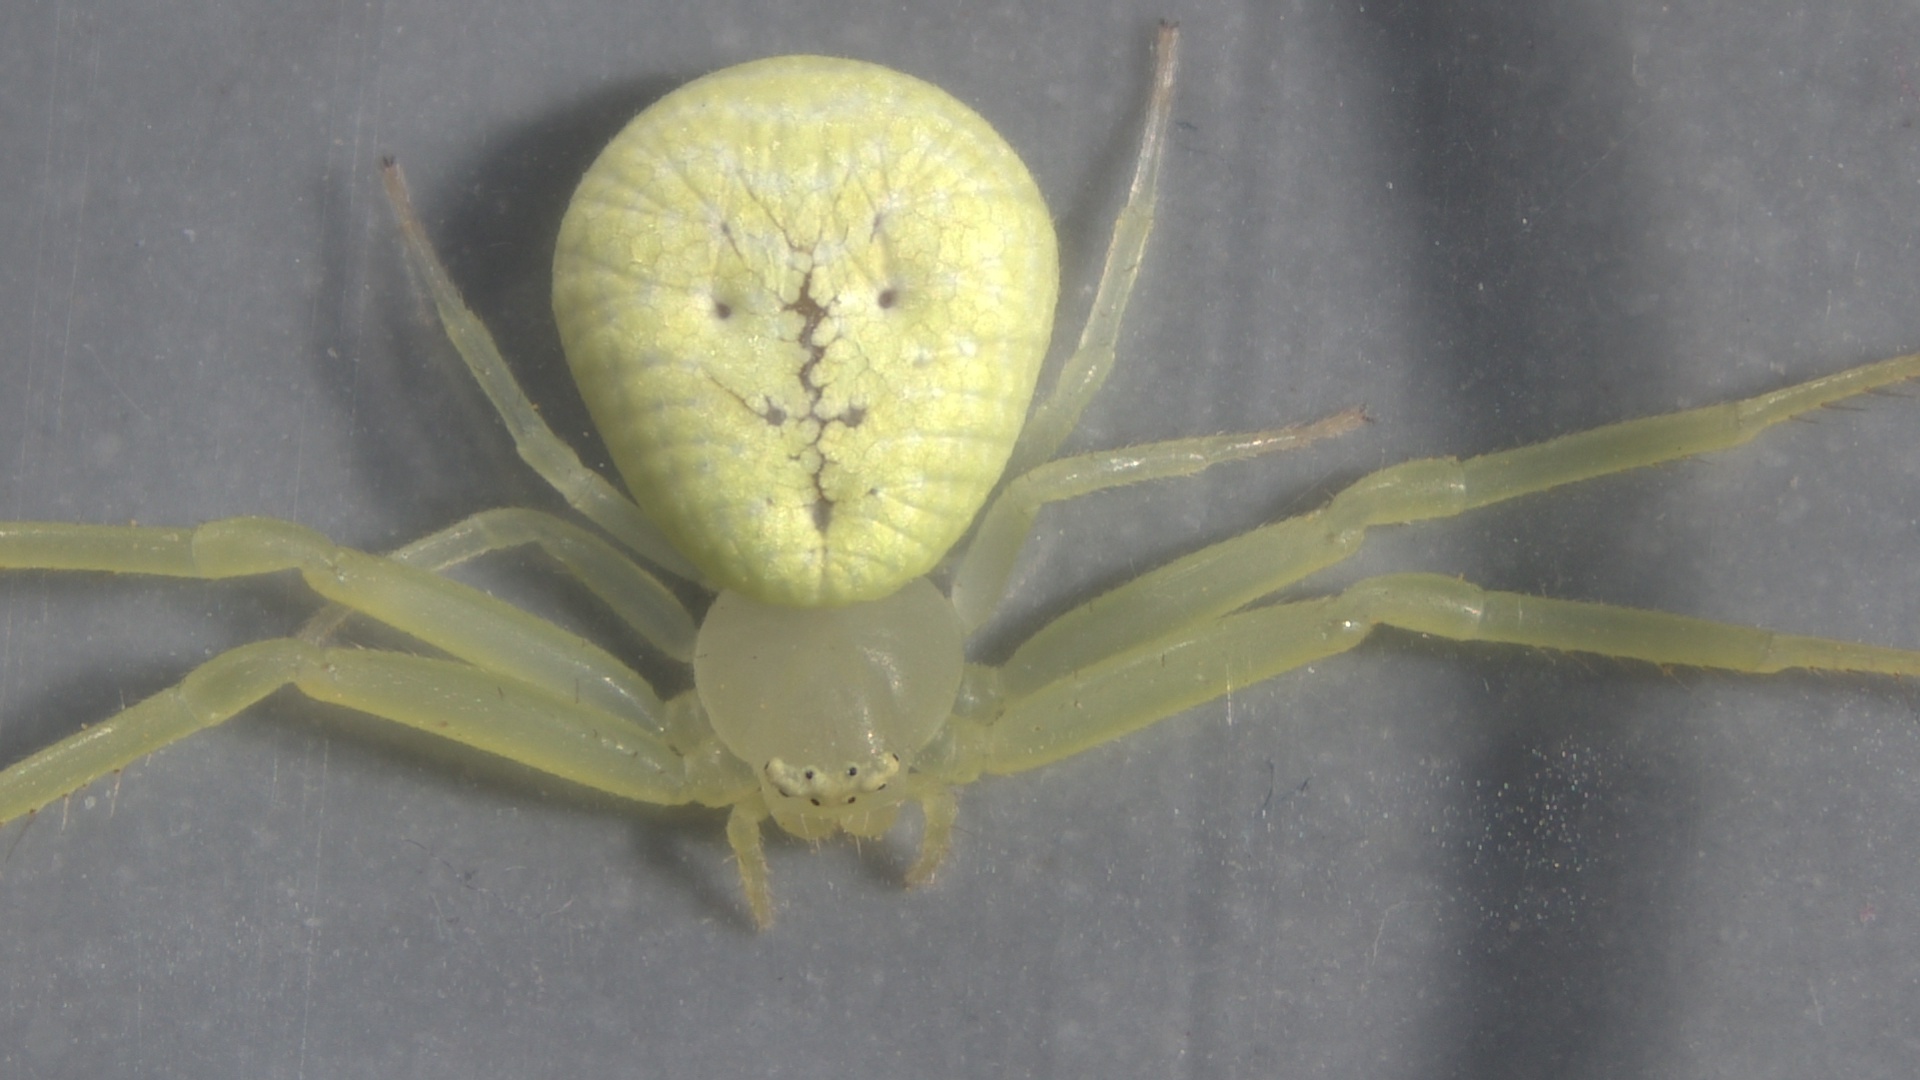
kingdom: Animalia
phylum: Arthropoda
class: Arachnida
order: Araneae
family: Thomisidae
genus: Misumessus
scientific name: Misumessus oblongus
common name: American green crab spider
